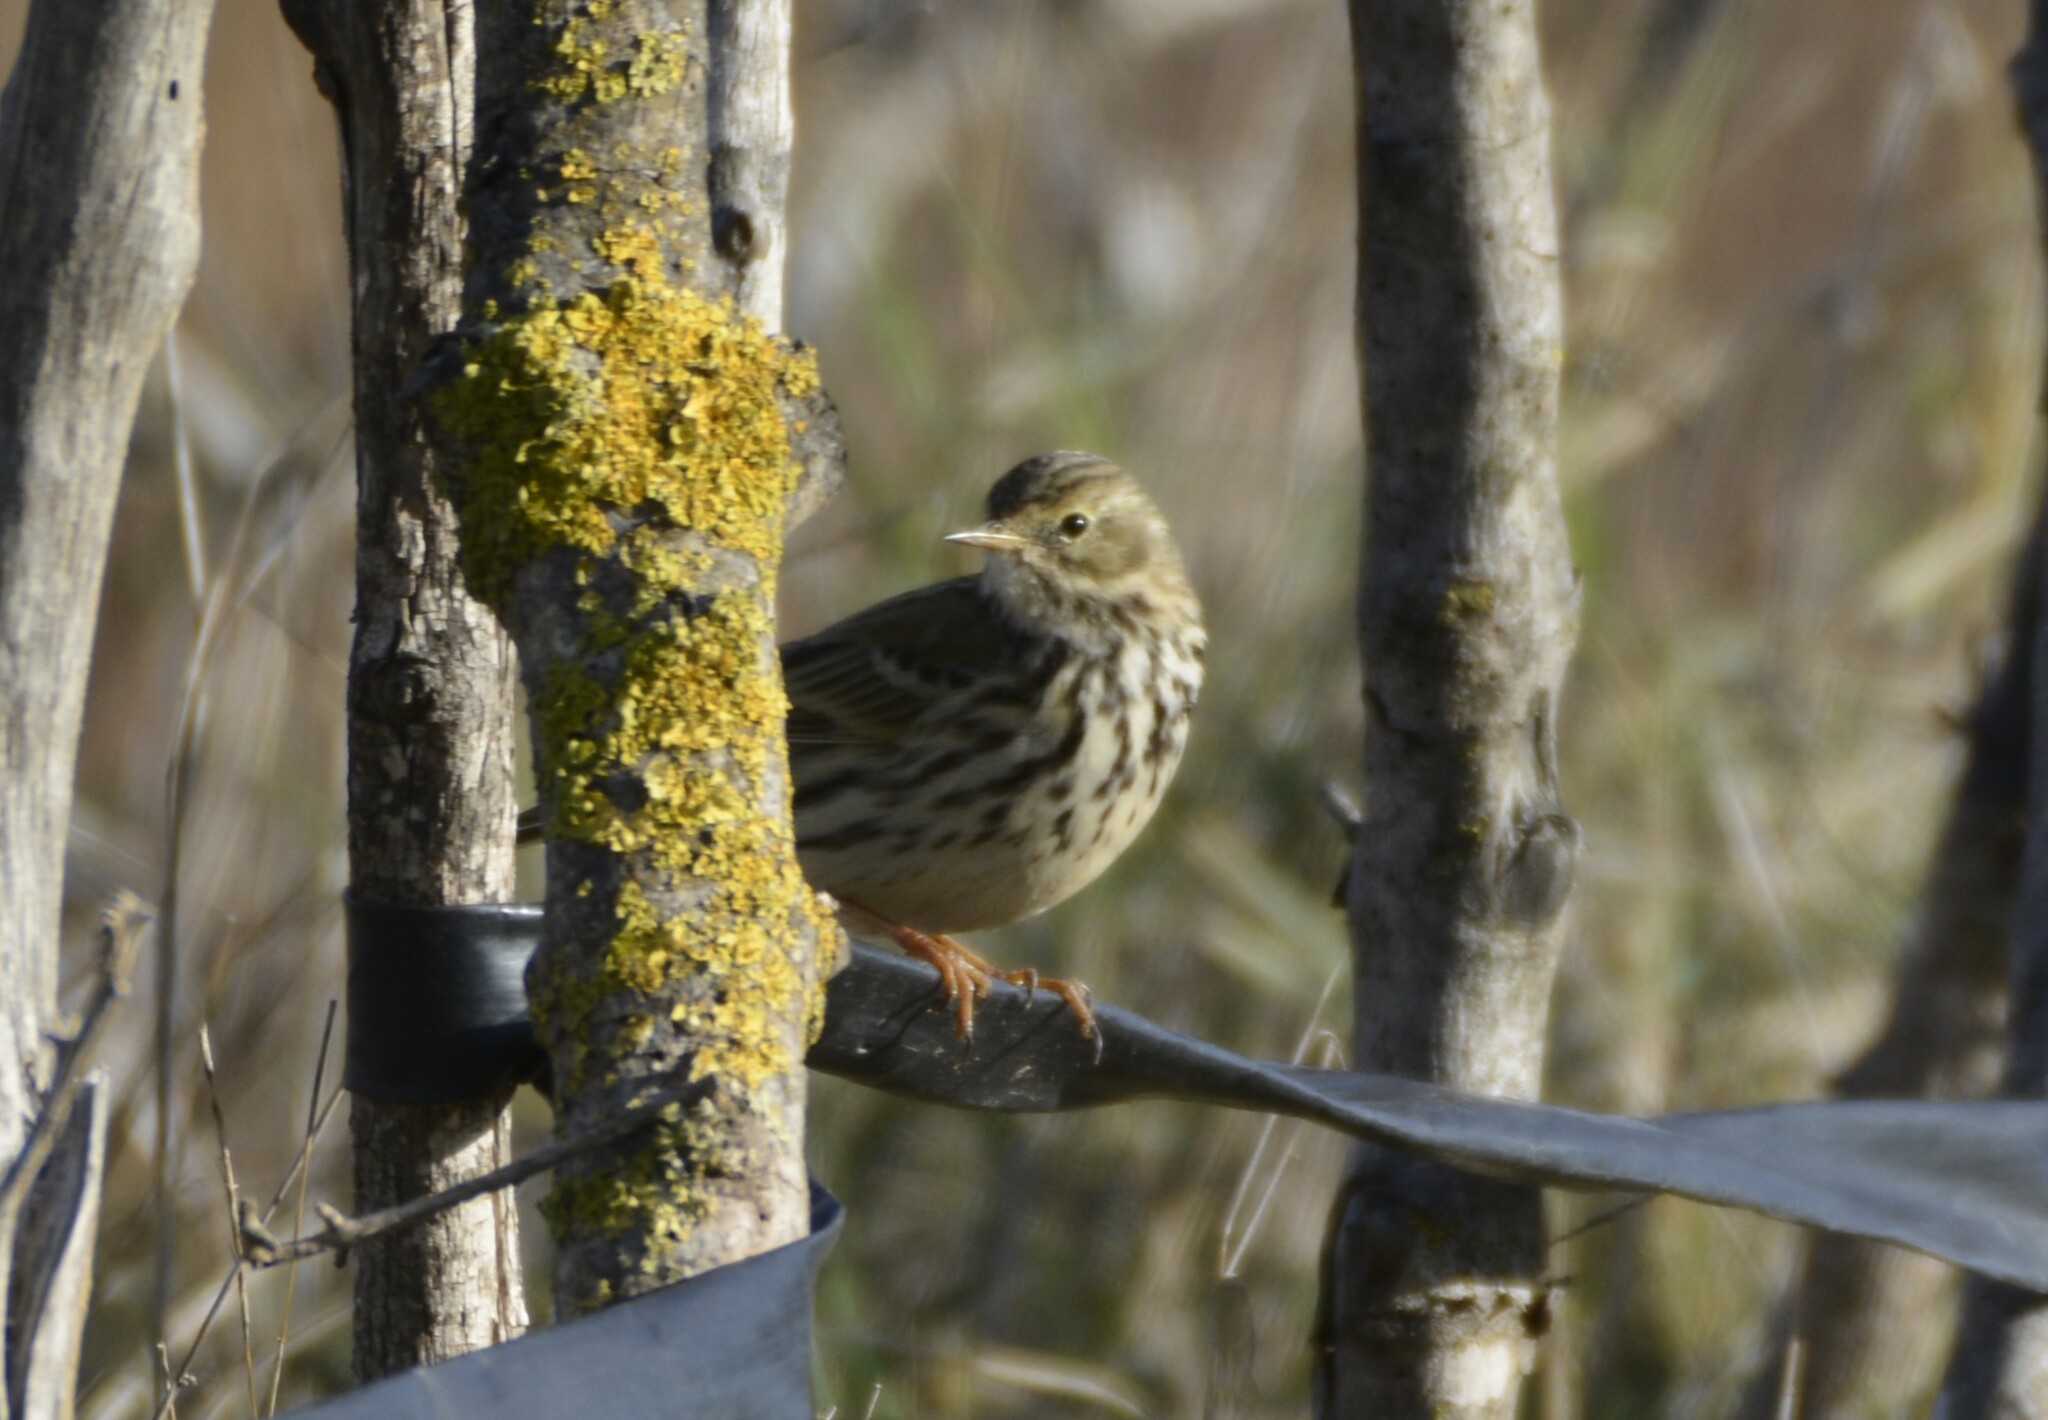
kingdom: Animalia
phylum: Chordata
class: Aves
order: Passeriformes
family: Motacillidae
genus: Anthus
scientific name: Anthus pratensis
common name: Meadow pipit
